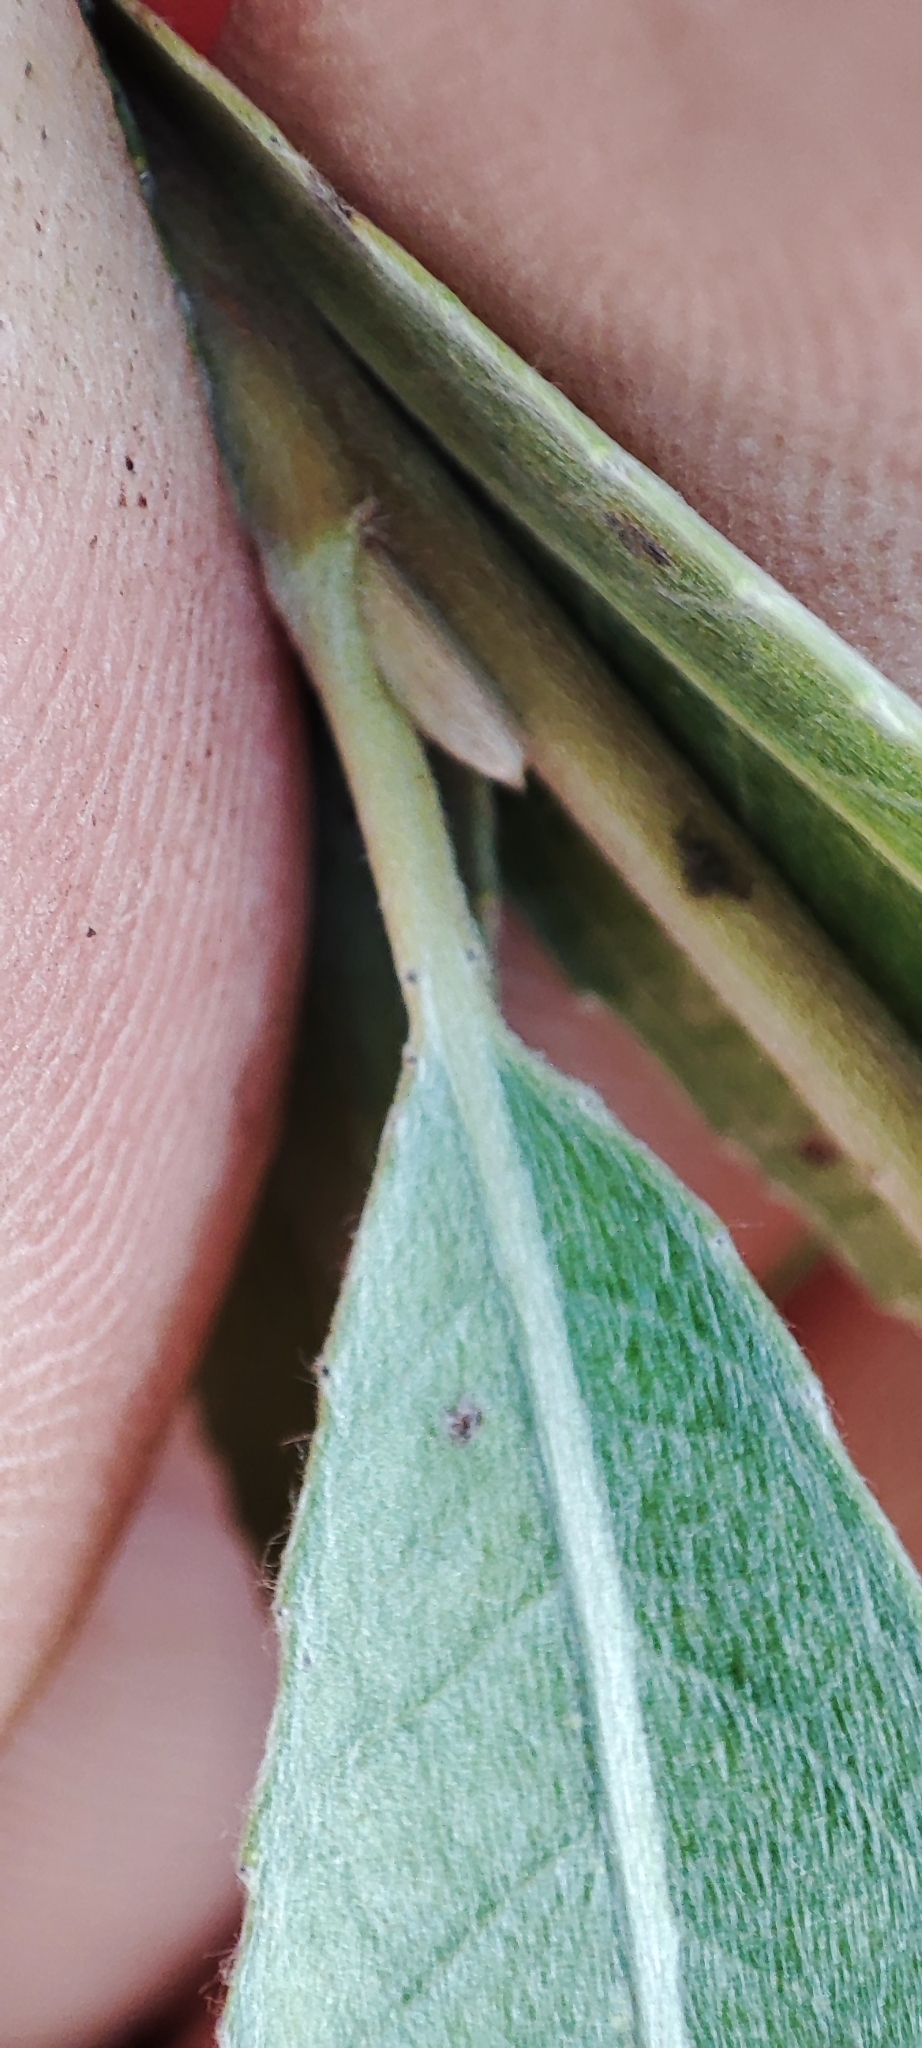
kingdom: Plantae
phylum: Tracheophyta
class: Magnoliopsida
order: Malpighiales
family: Salicaceae
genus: Salix
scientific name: Salix alba
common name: White willow
